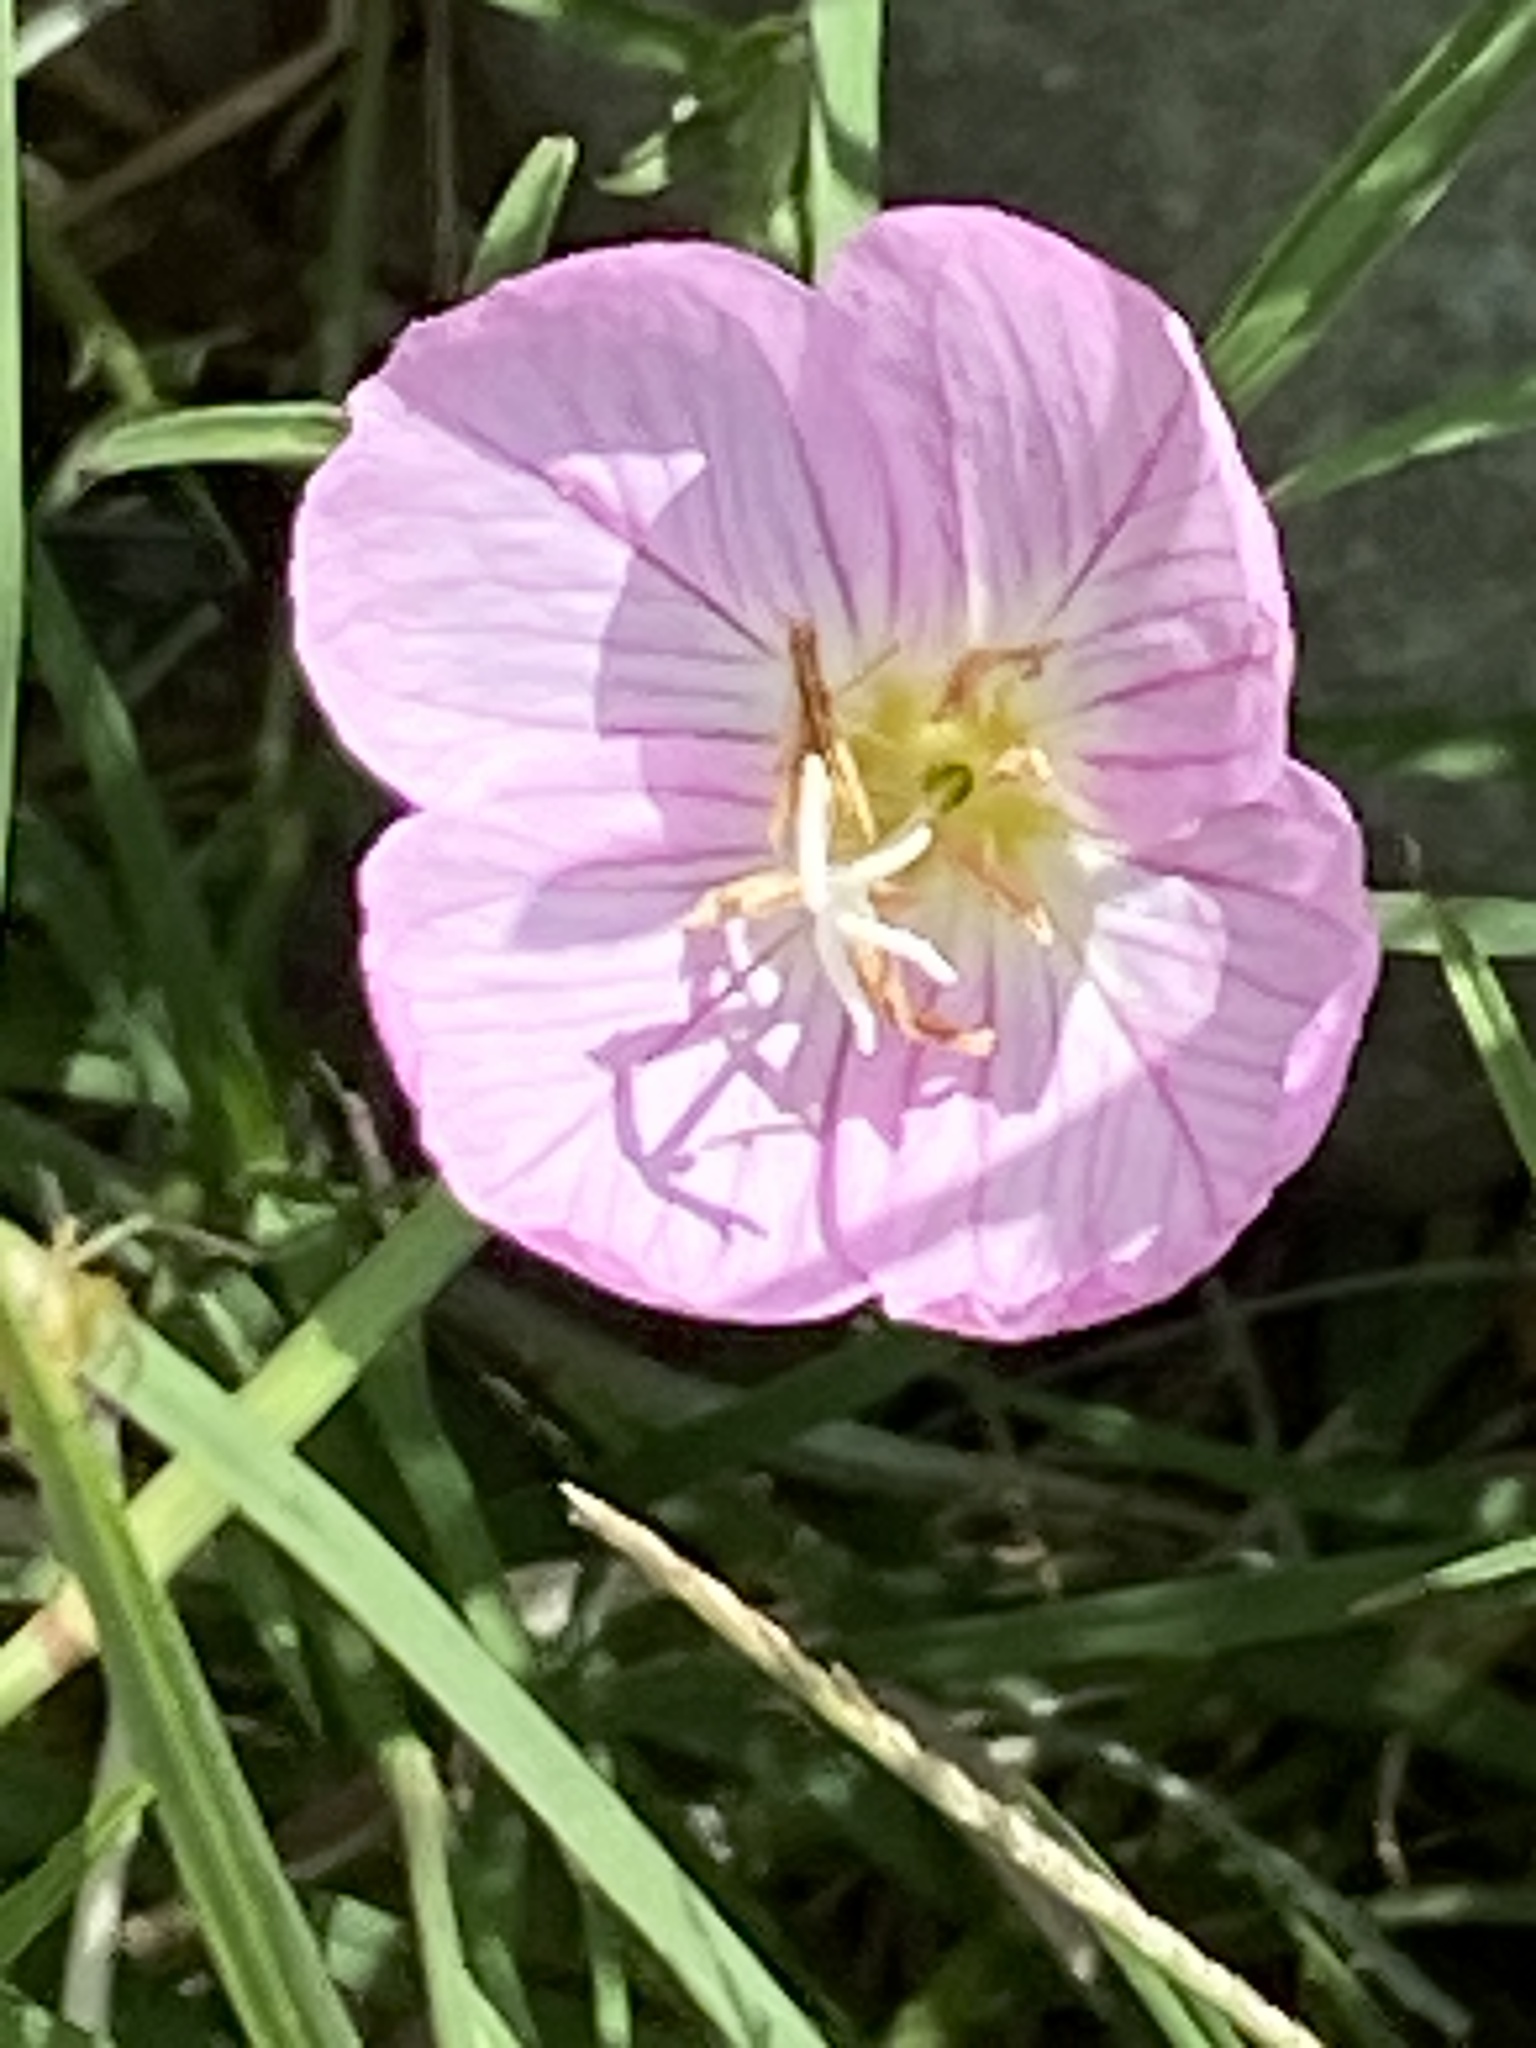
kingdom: Plantae
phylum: Tracheophyta
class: Magnoliopsida
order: Myrtales
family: Onagraceae
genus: Oenothera
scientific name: Oenothera speciosa
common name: White evening-primrose
